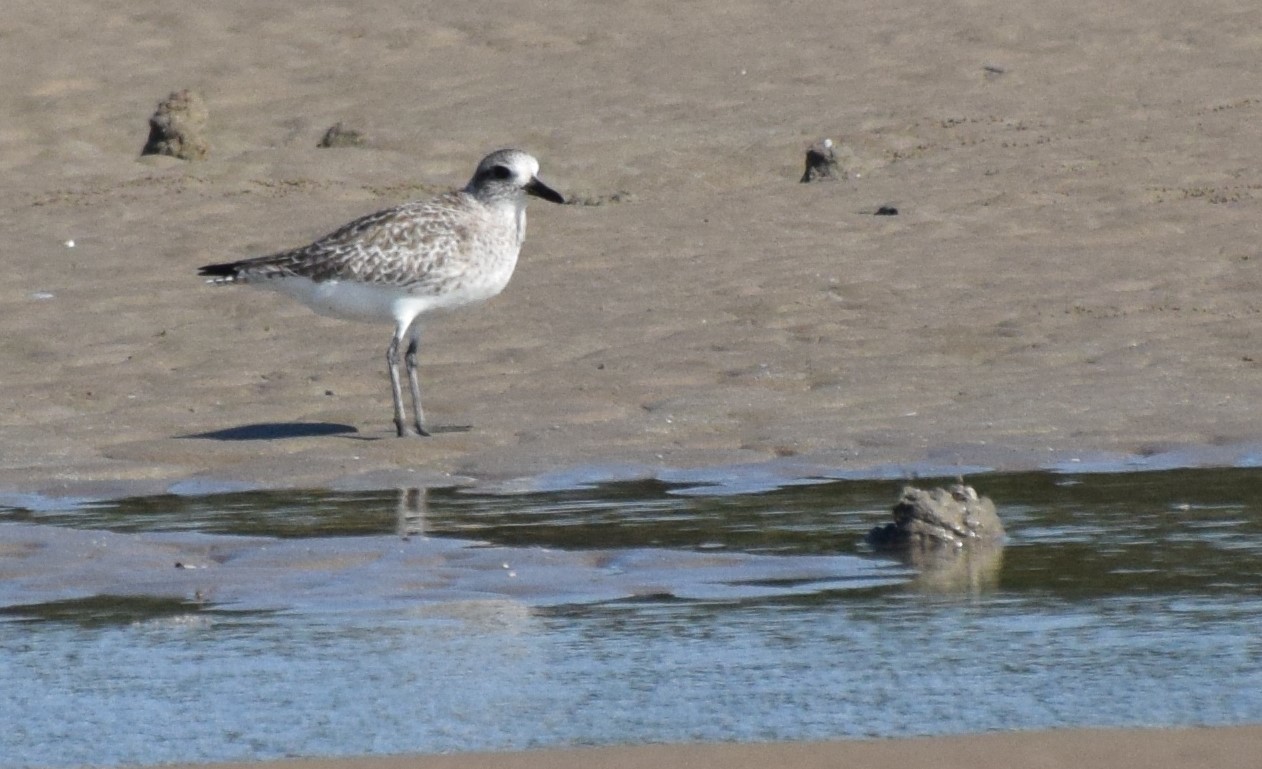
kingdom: Animalia
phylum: Chordata
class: Aves
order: Charadriiformes
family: Charadriidae
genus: Pluvialis
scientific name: Pluvialis squatarola
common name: Grey plover
